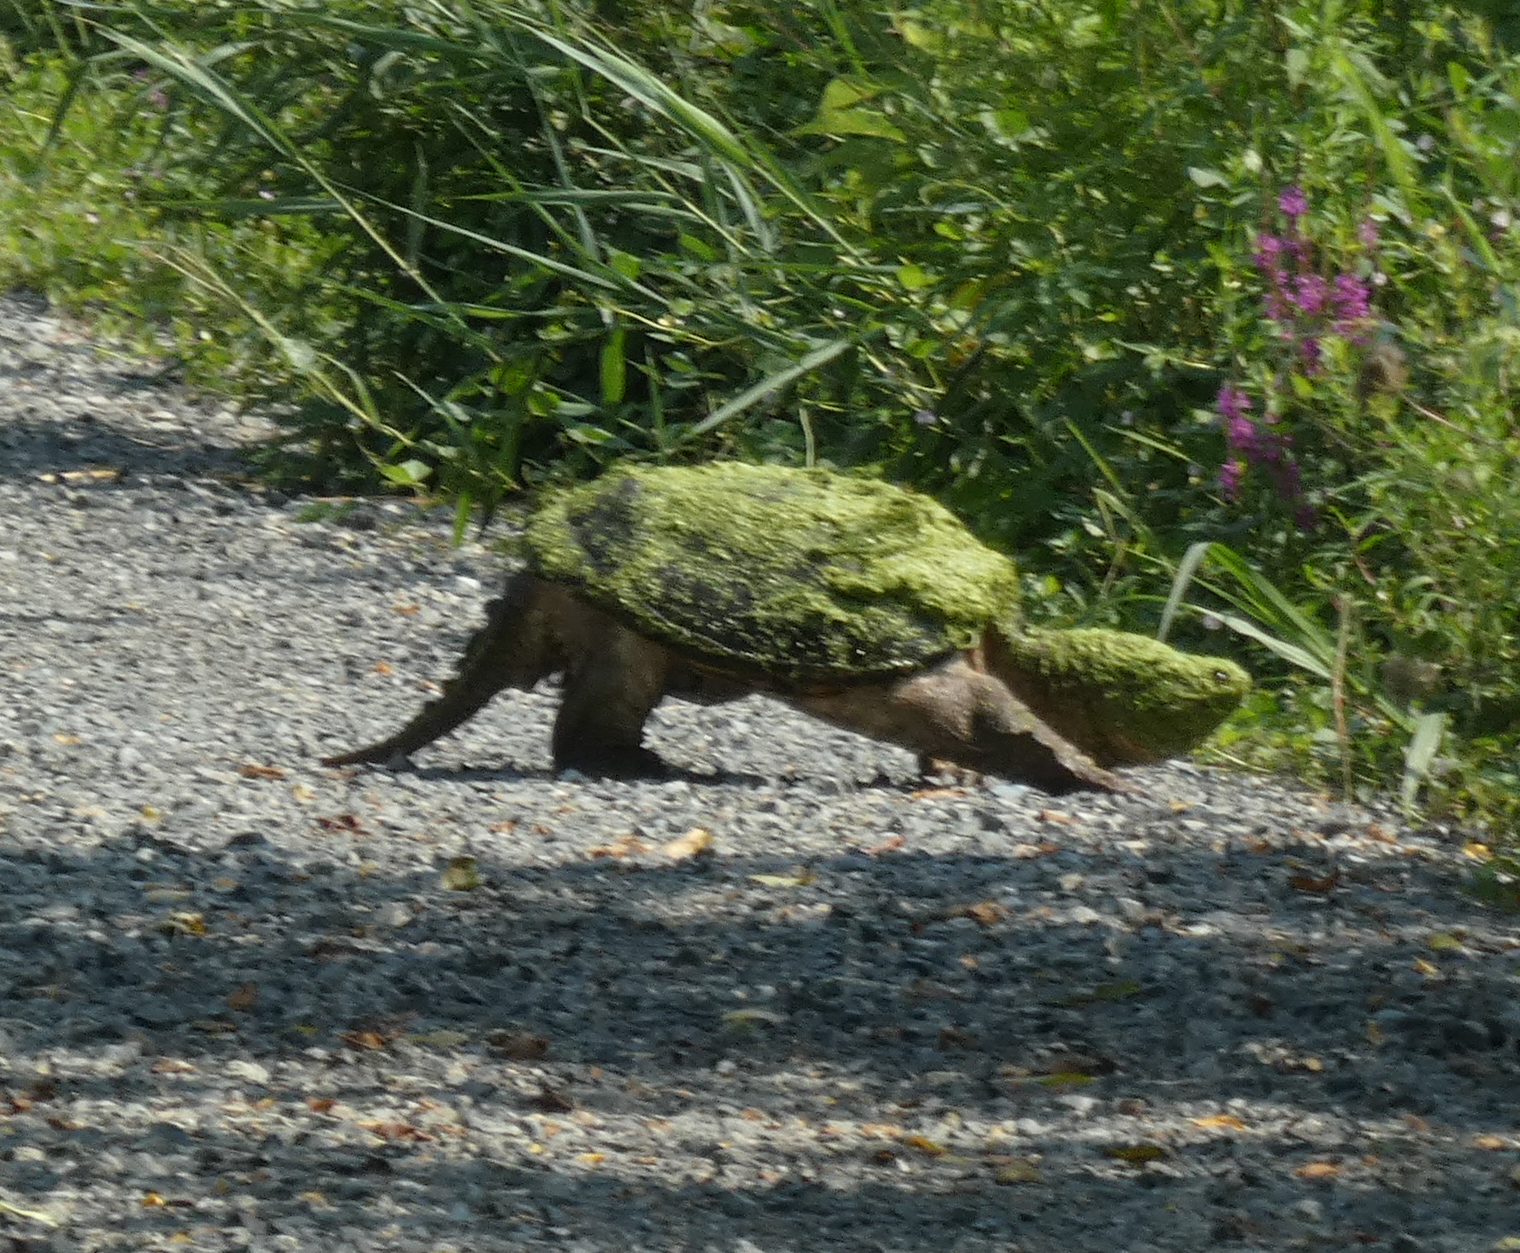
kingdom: Animalia
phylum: Chordata
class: Testudines
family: Chelydridae
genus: Chelydra
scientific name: Chelydra serpentina
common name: Common snapping turtle
